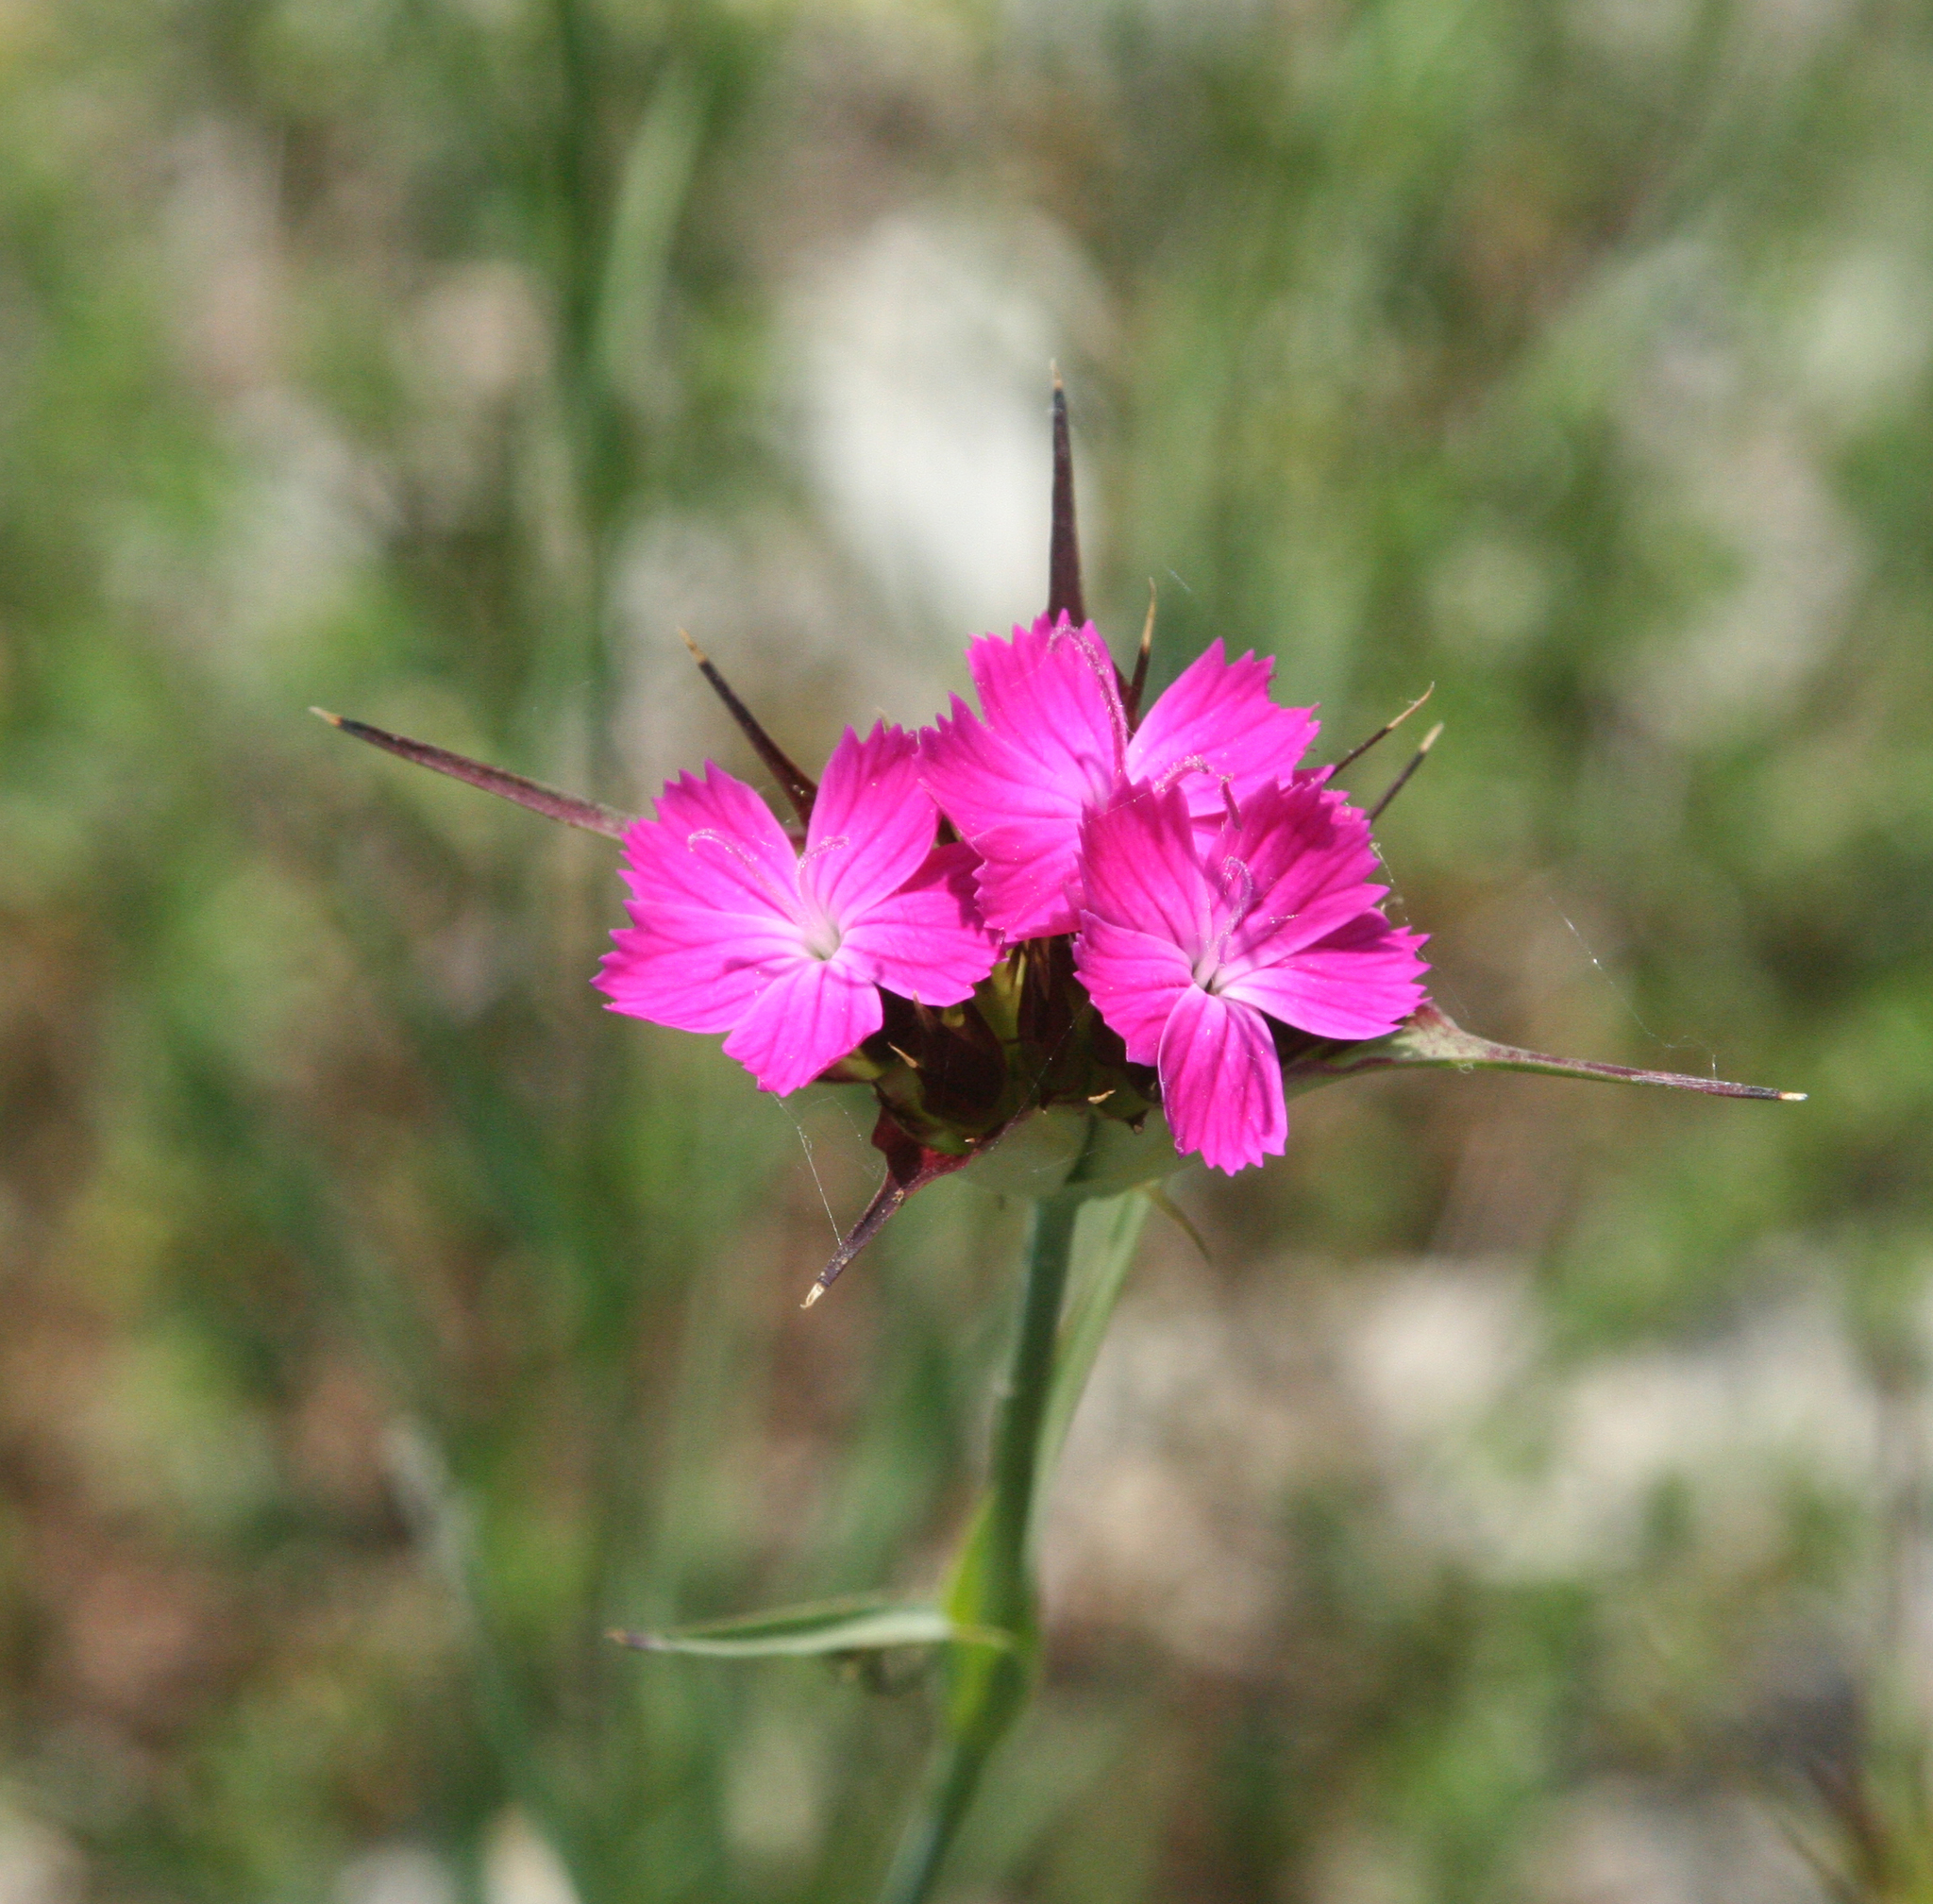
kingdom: Plantae
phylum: Tracheophyta
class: Magnoliopsida
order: Caryophyllales
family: Caryophyllaceae
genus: Dianthus
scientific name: Dianthus capitatus
